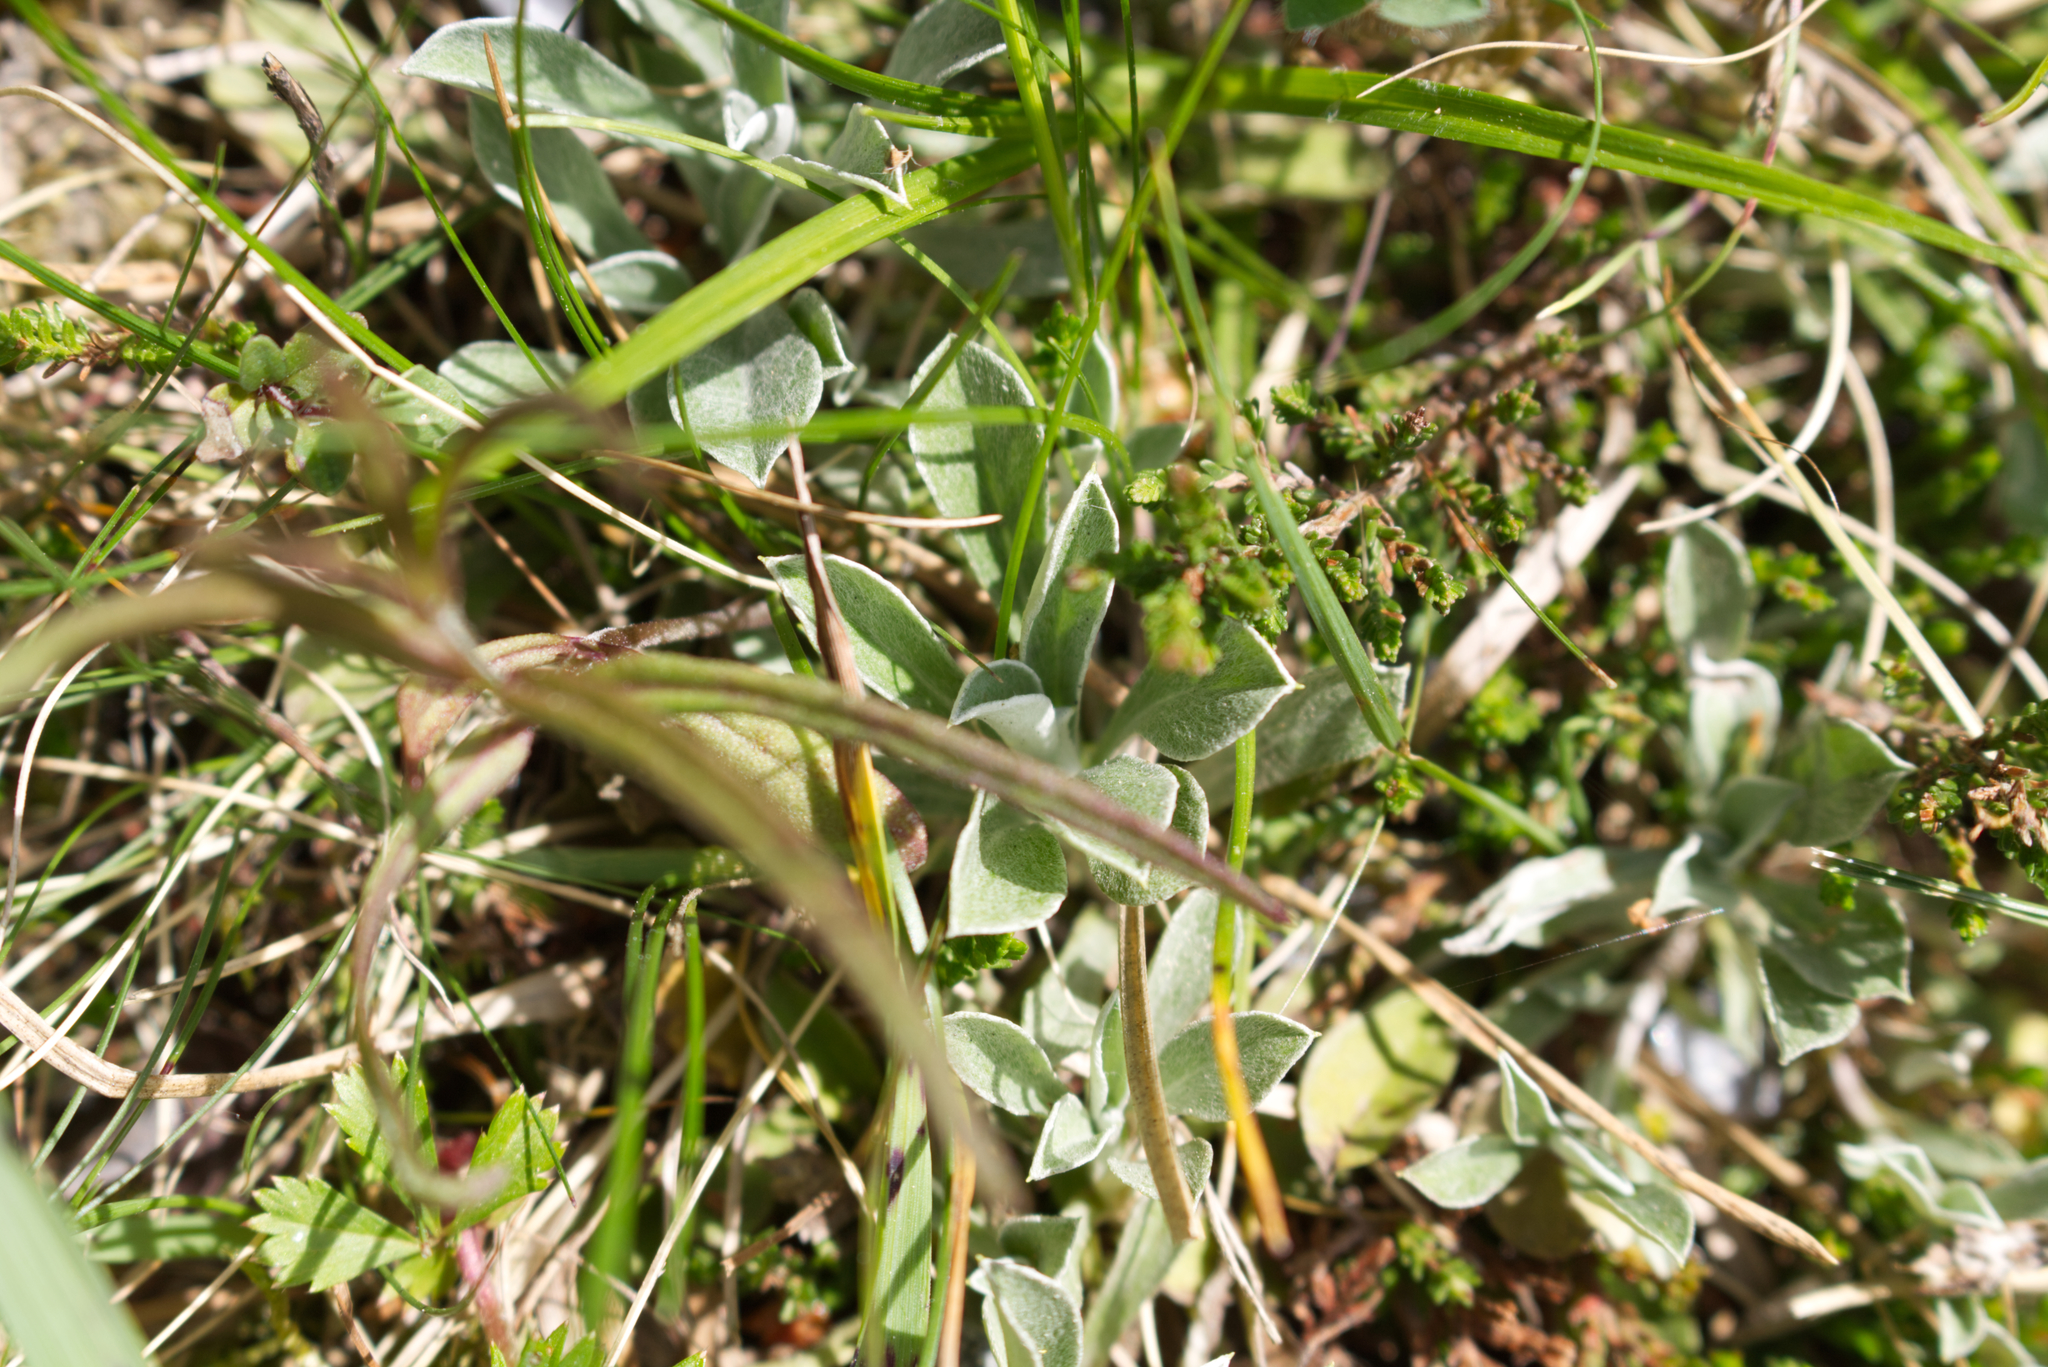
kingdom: Plantae
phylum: Tracheophyta
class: Magnoliopsida
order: Asterales
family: Asteraceae
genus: Antennaria
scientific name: Antennaria dioica
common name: Mountain everlasting
